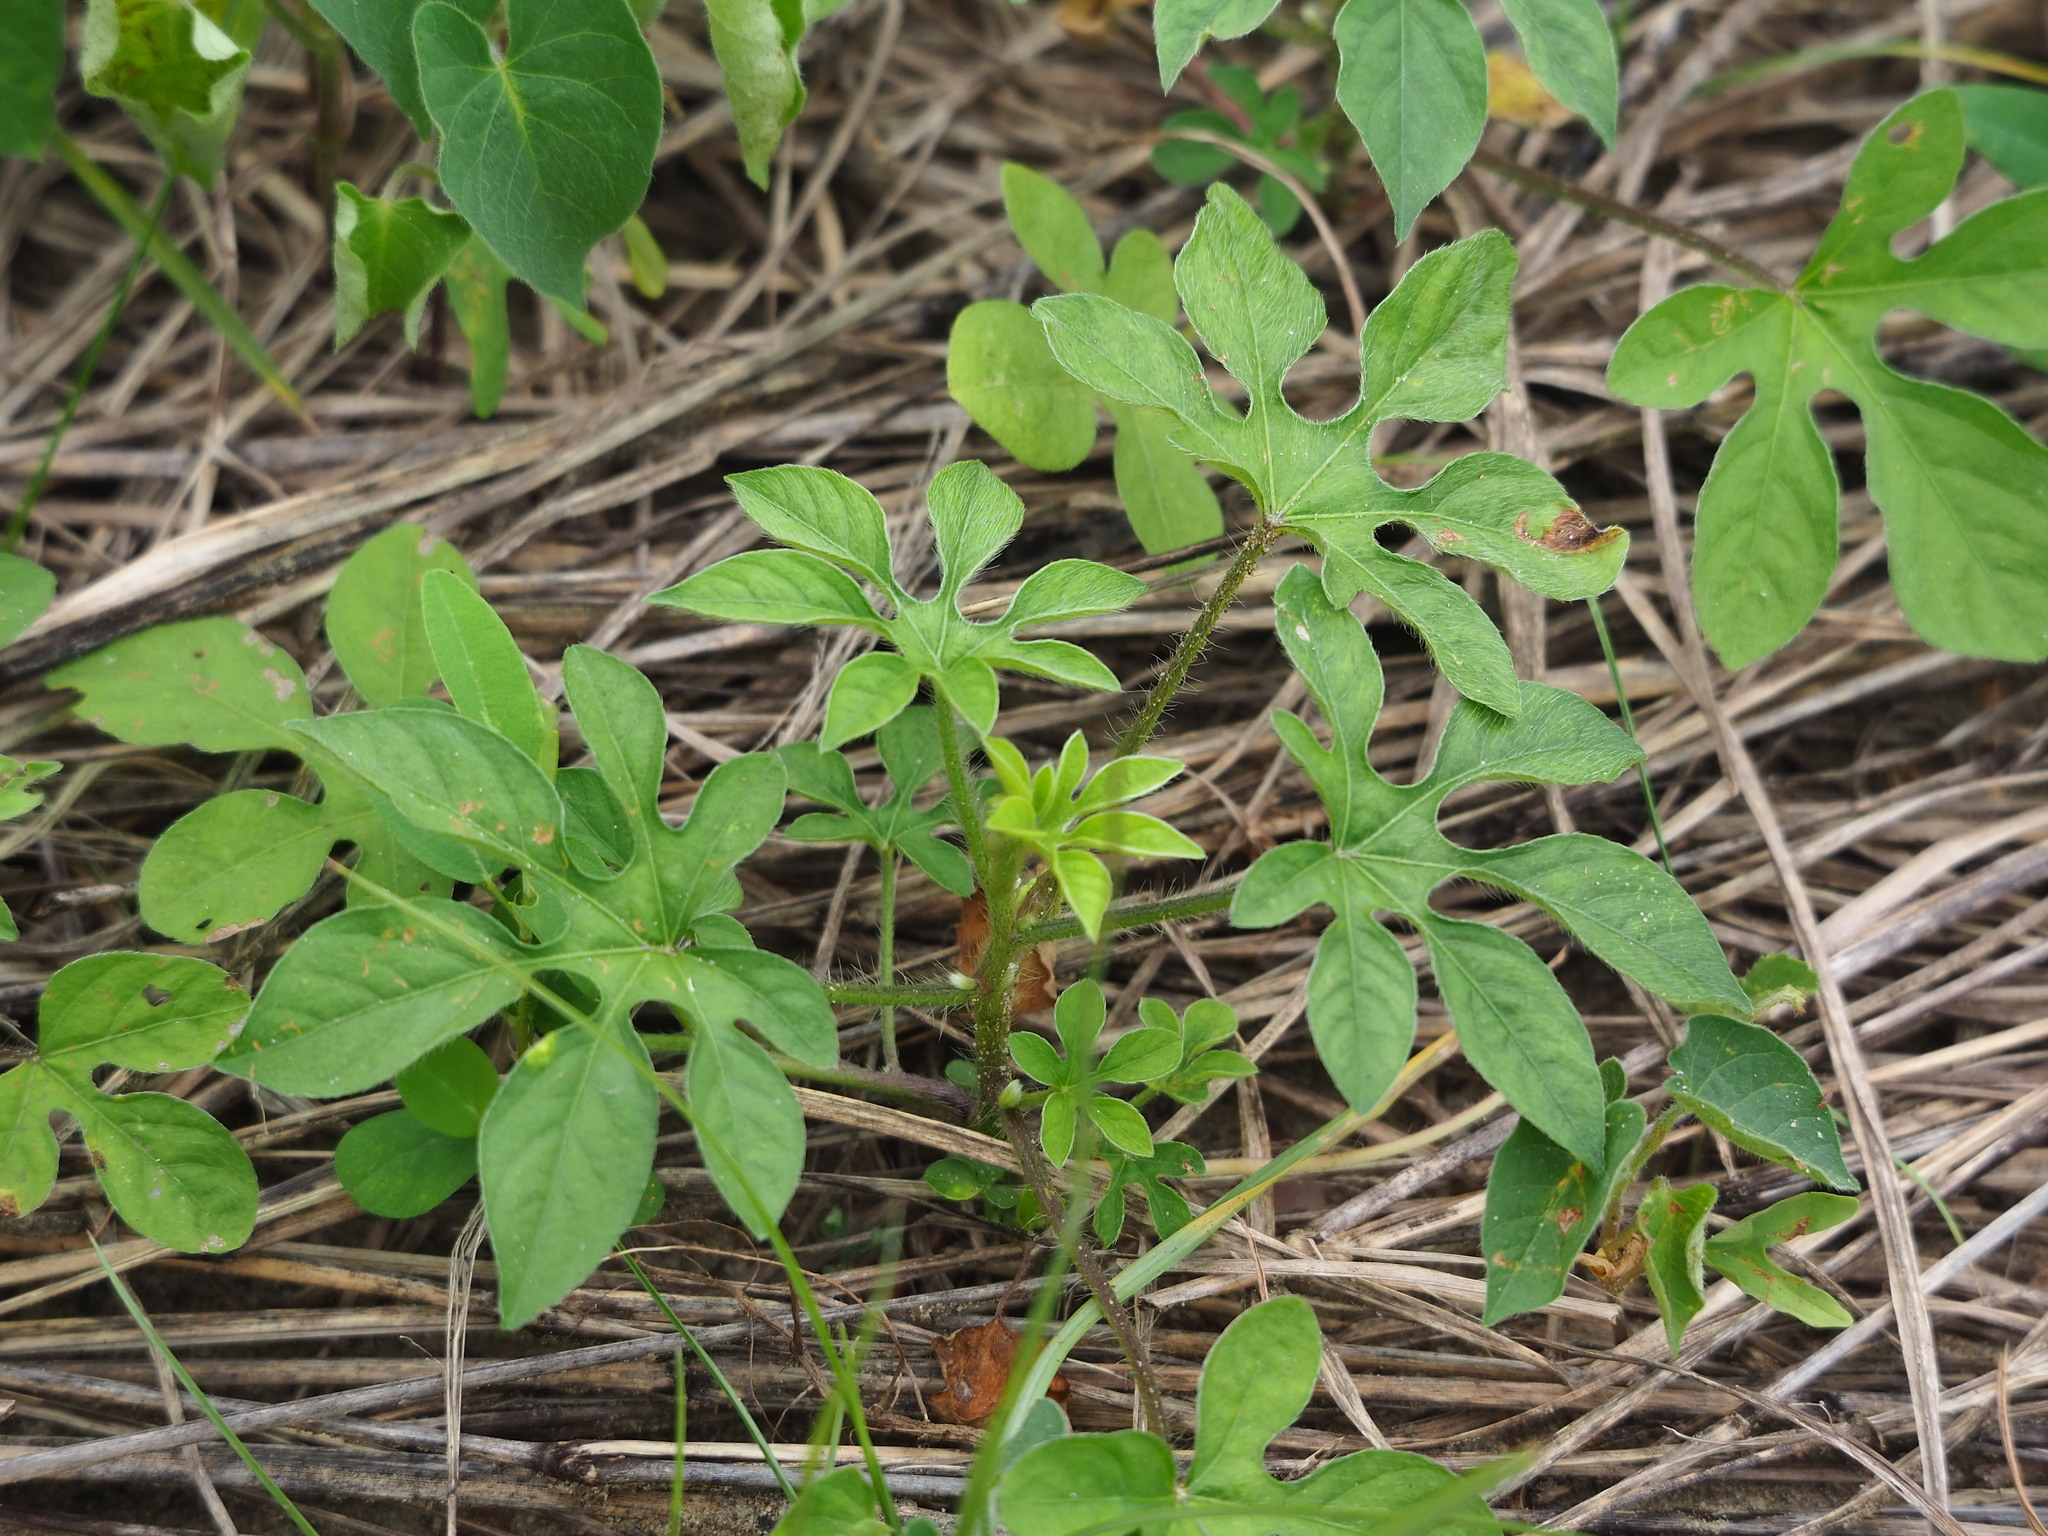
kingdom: Plantae
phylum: Tracheophyta
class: Magnoliopsida
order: Solanales
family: Convolvulaceae
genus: Ipomoea
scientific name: Ipomoea pes-tigridis
